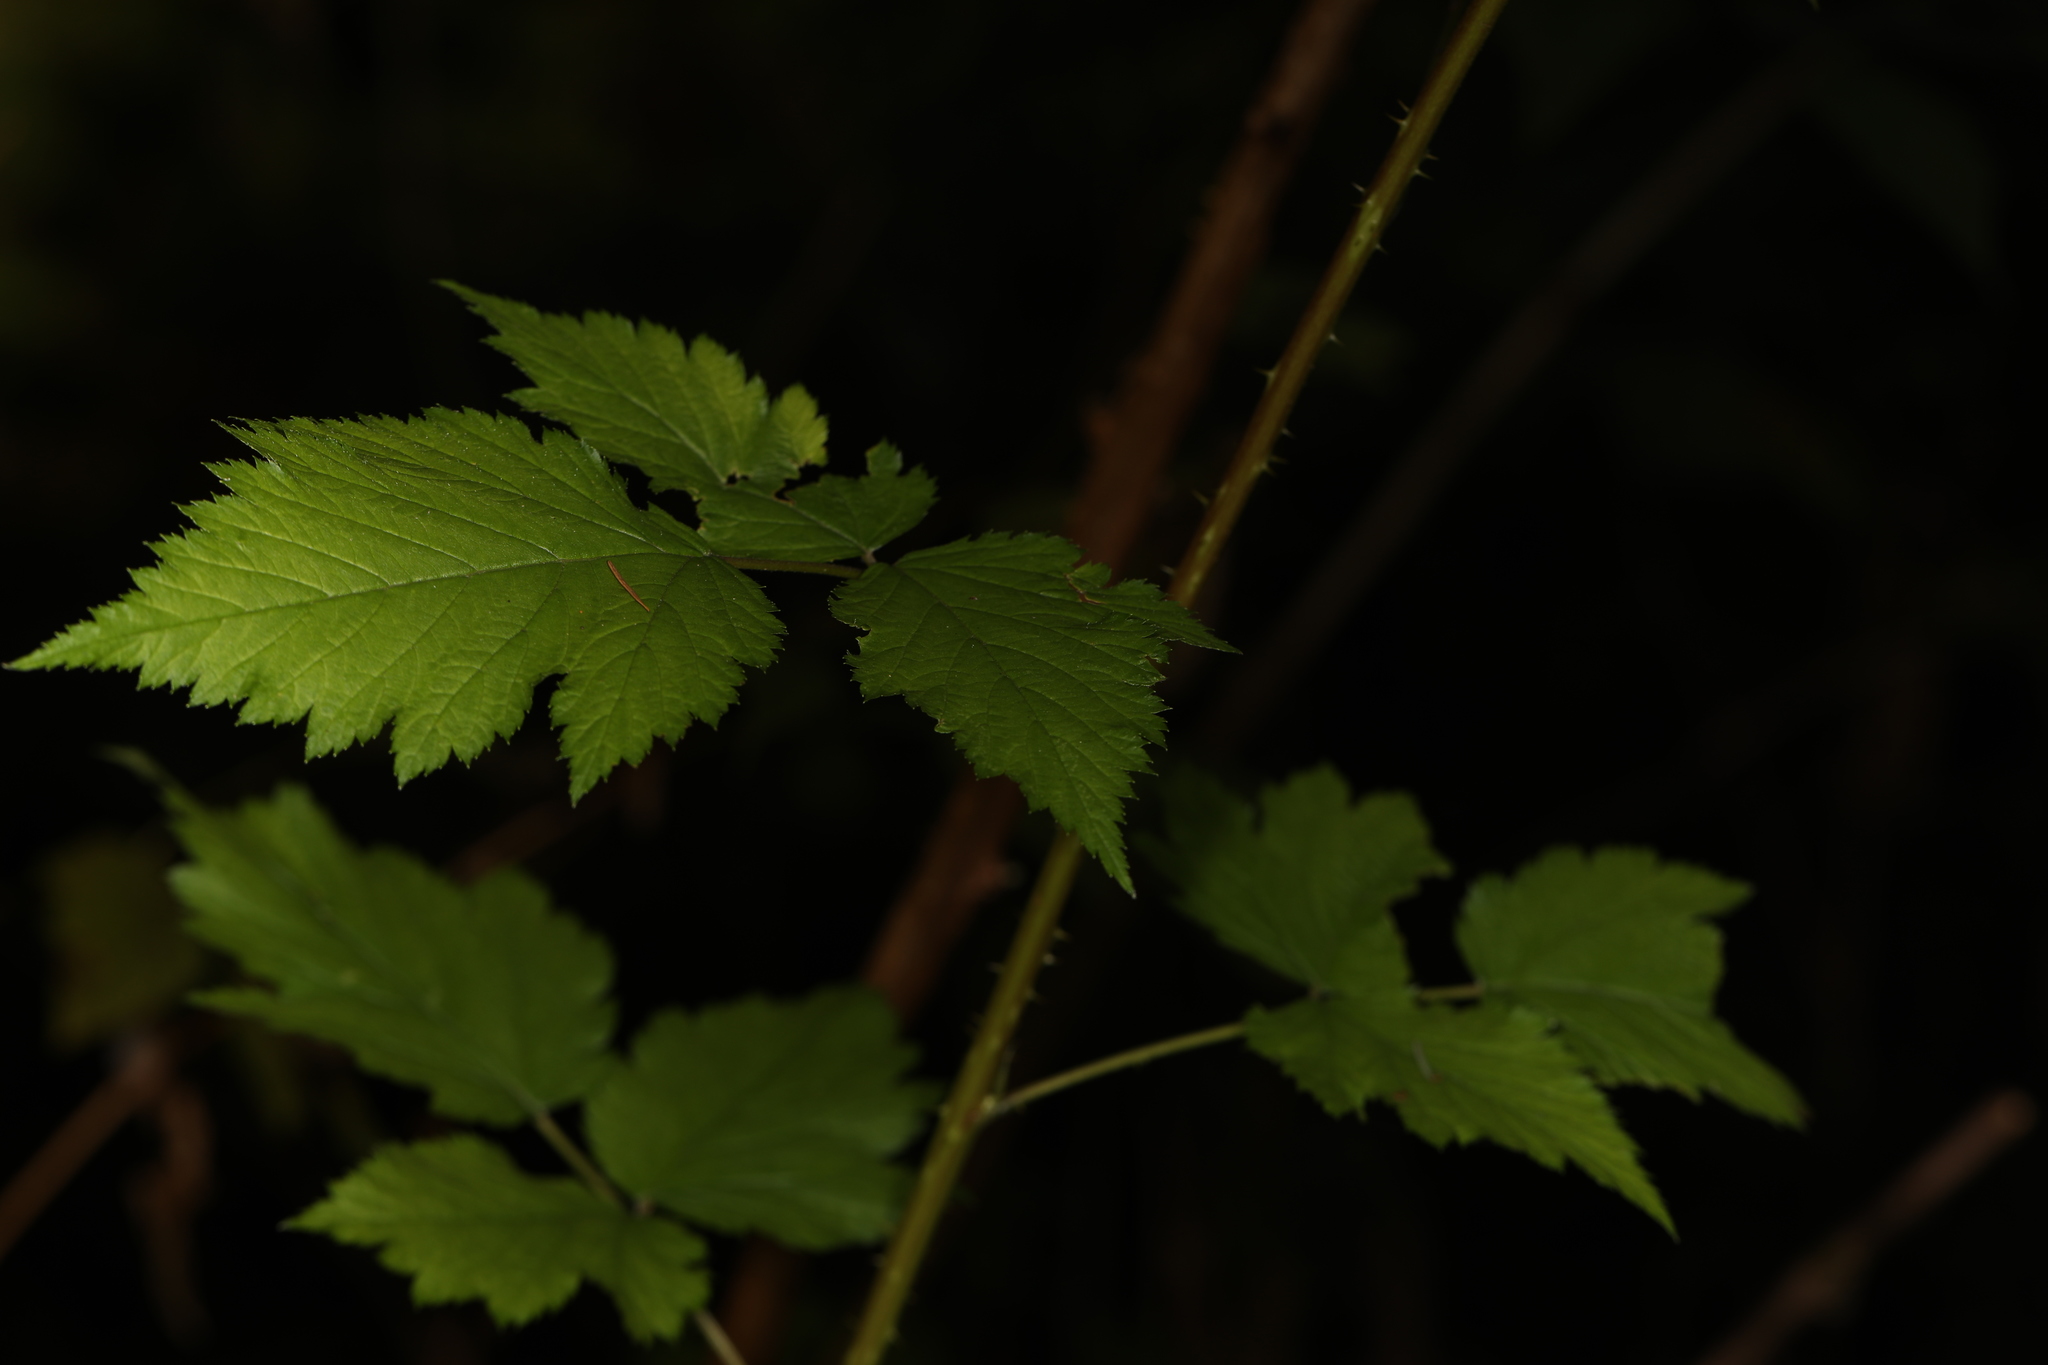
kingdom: Plantae
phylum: Tracheophyta
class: Magnoliopsida
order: Rosales
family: Rosaceae
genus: Rubus
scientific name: Rubus spectabilis
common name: Salmonberry
